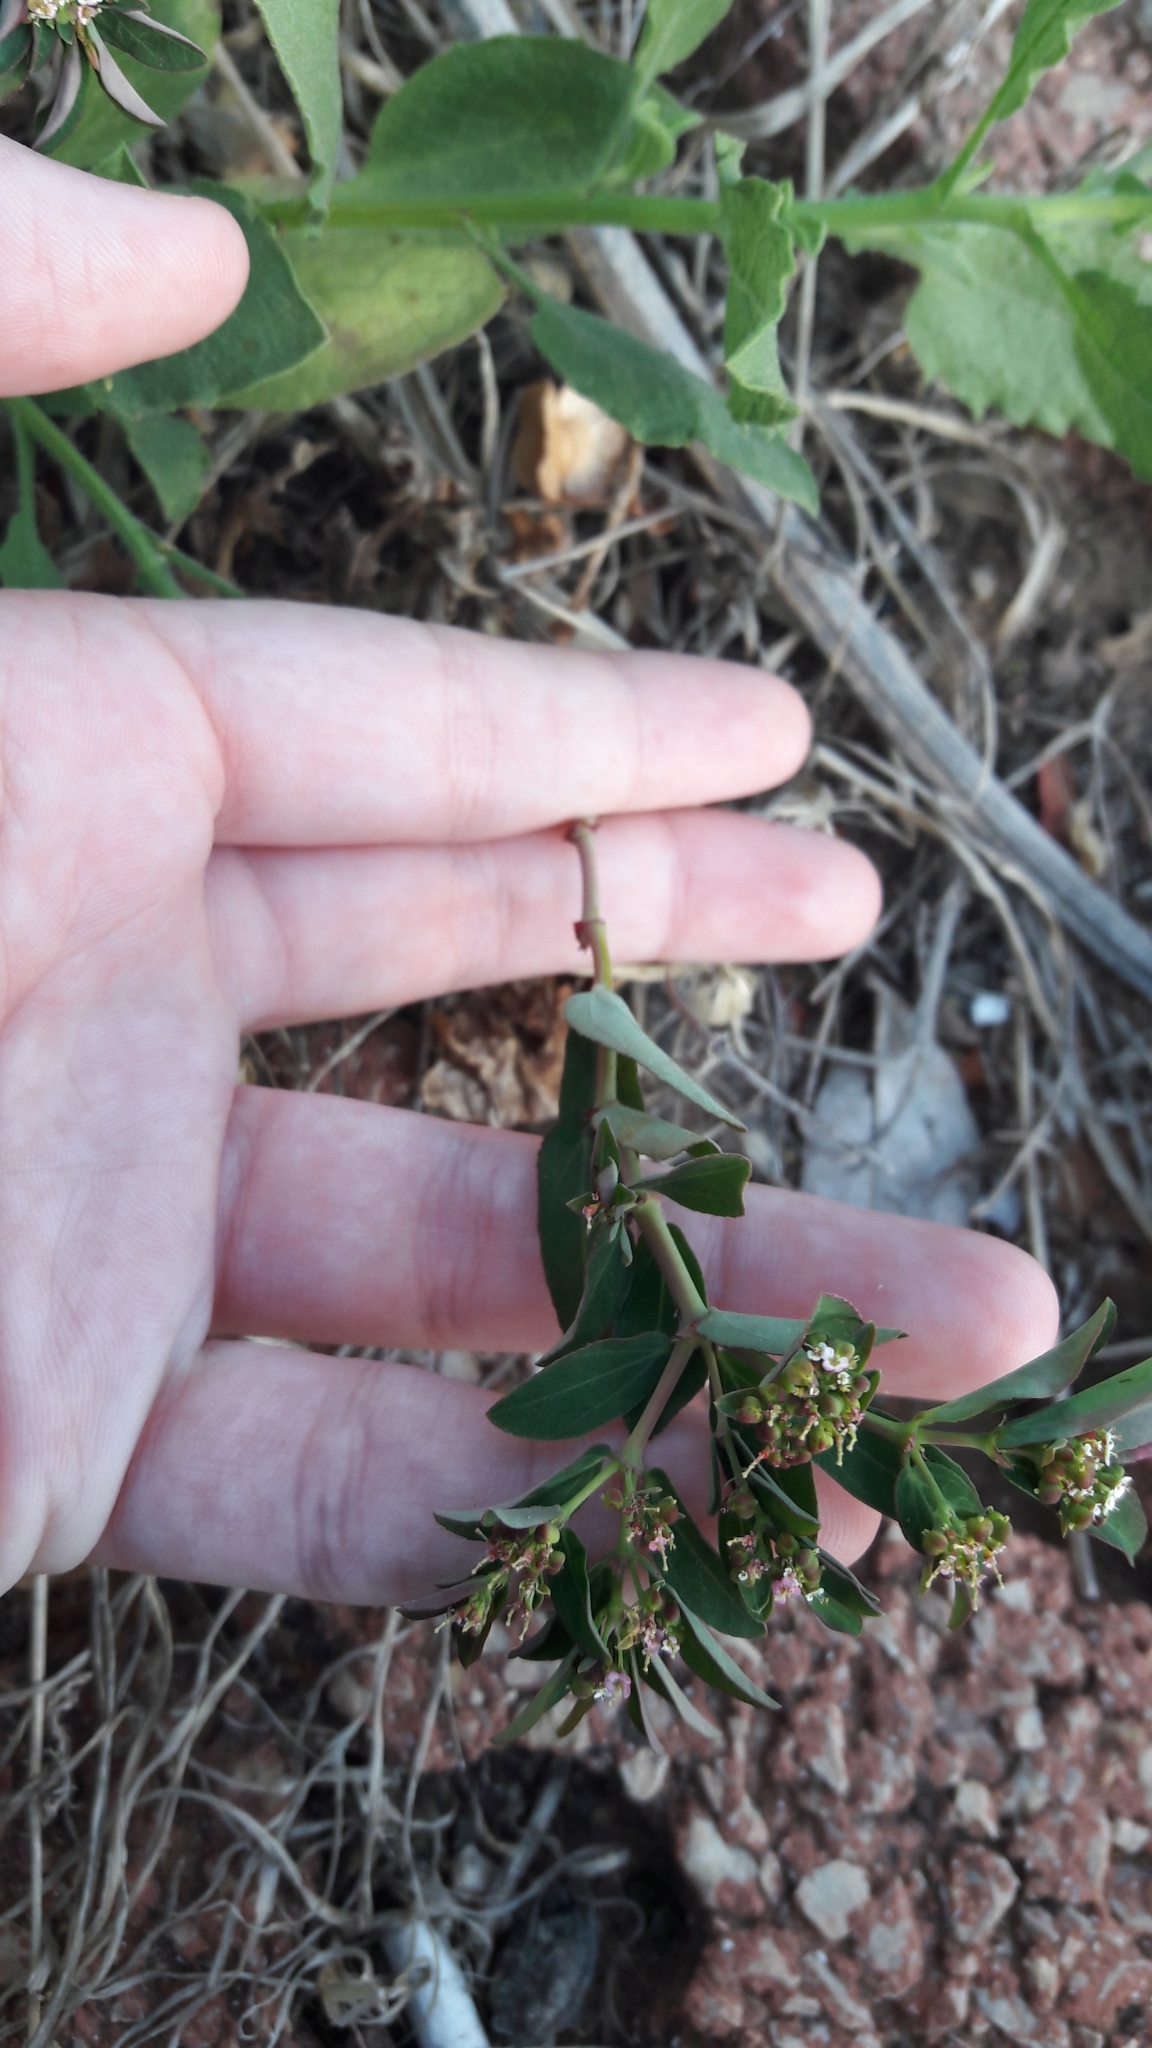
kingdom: Plantae
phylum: Tracheophyta
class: Magnoliopsida
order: Malpighiales
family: Euphorbiaceae
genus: Euphorbia
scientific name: Euphorbia hypericifolia
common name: Graceful sandmat
